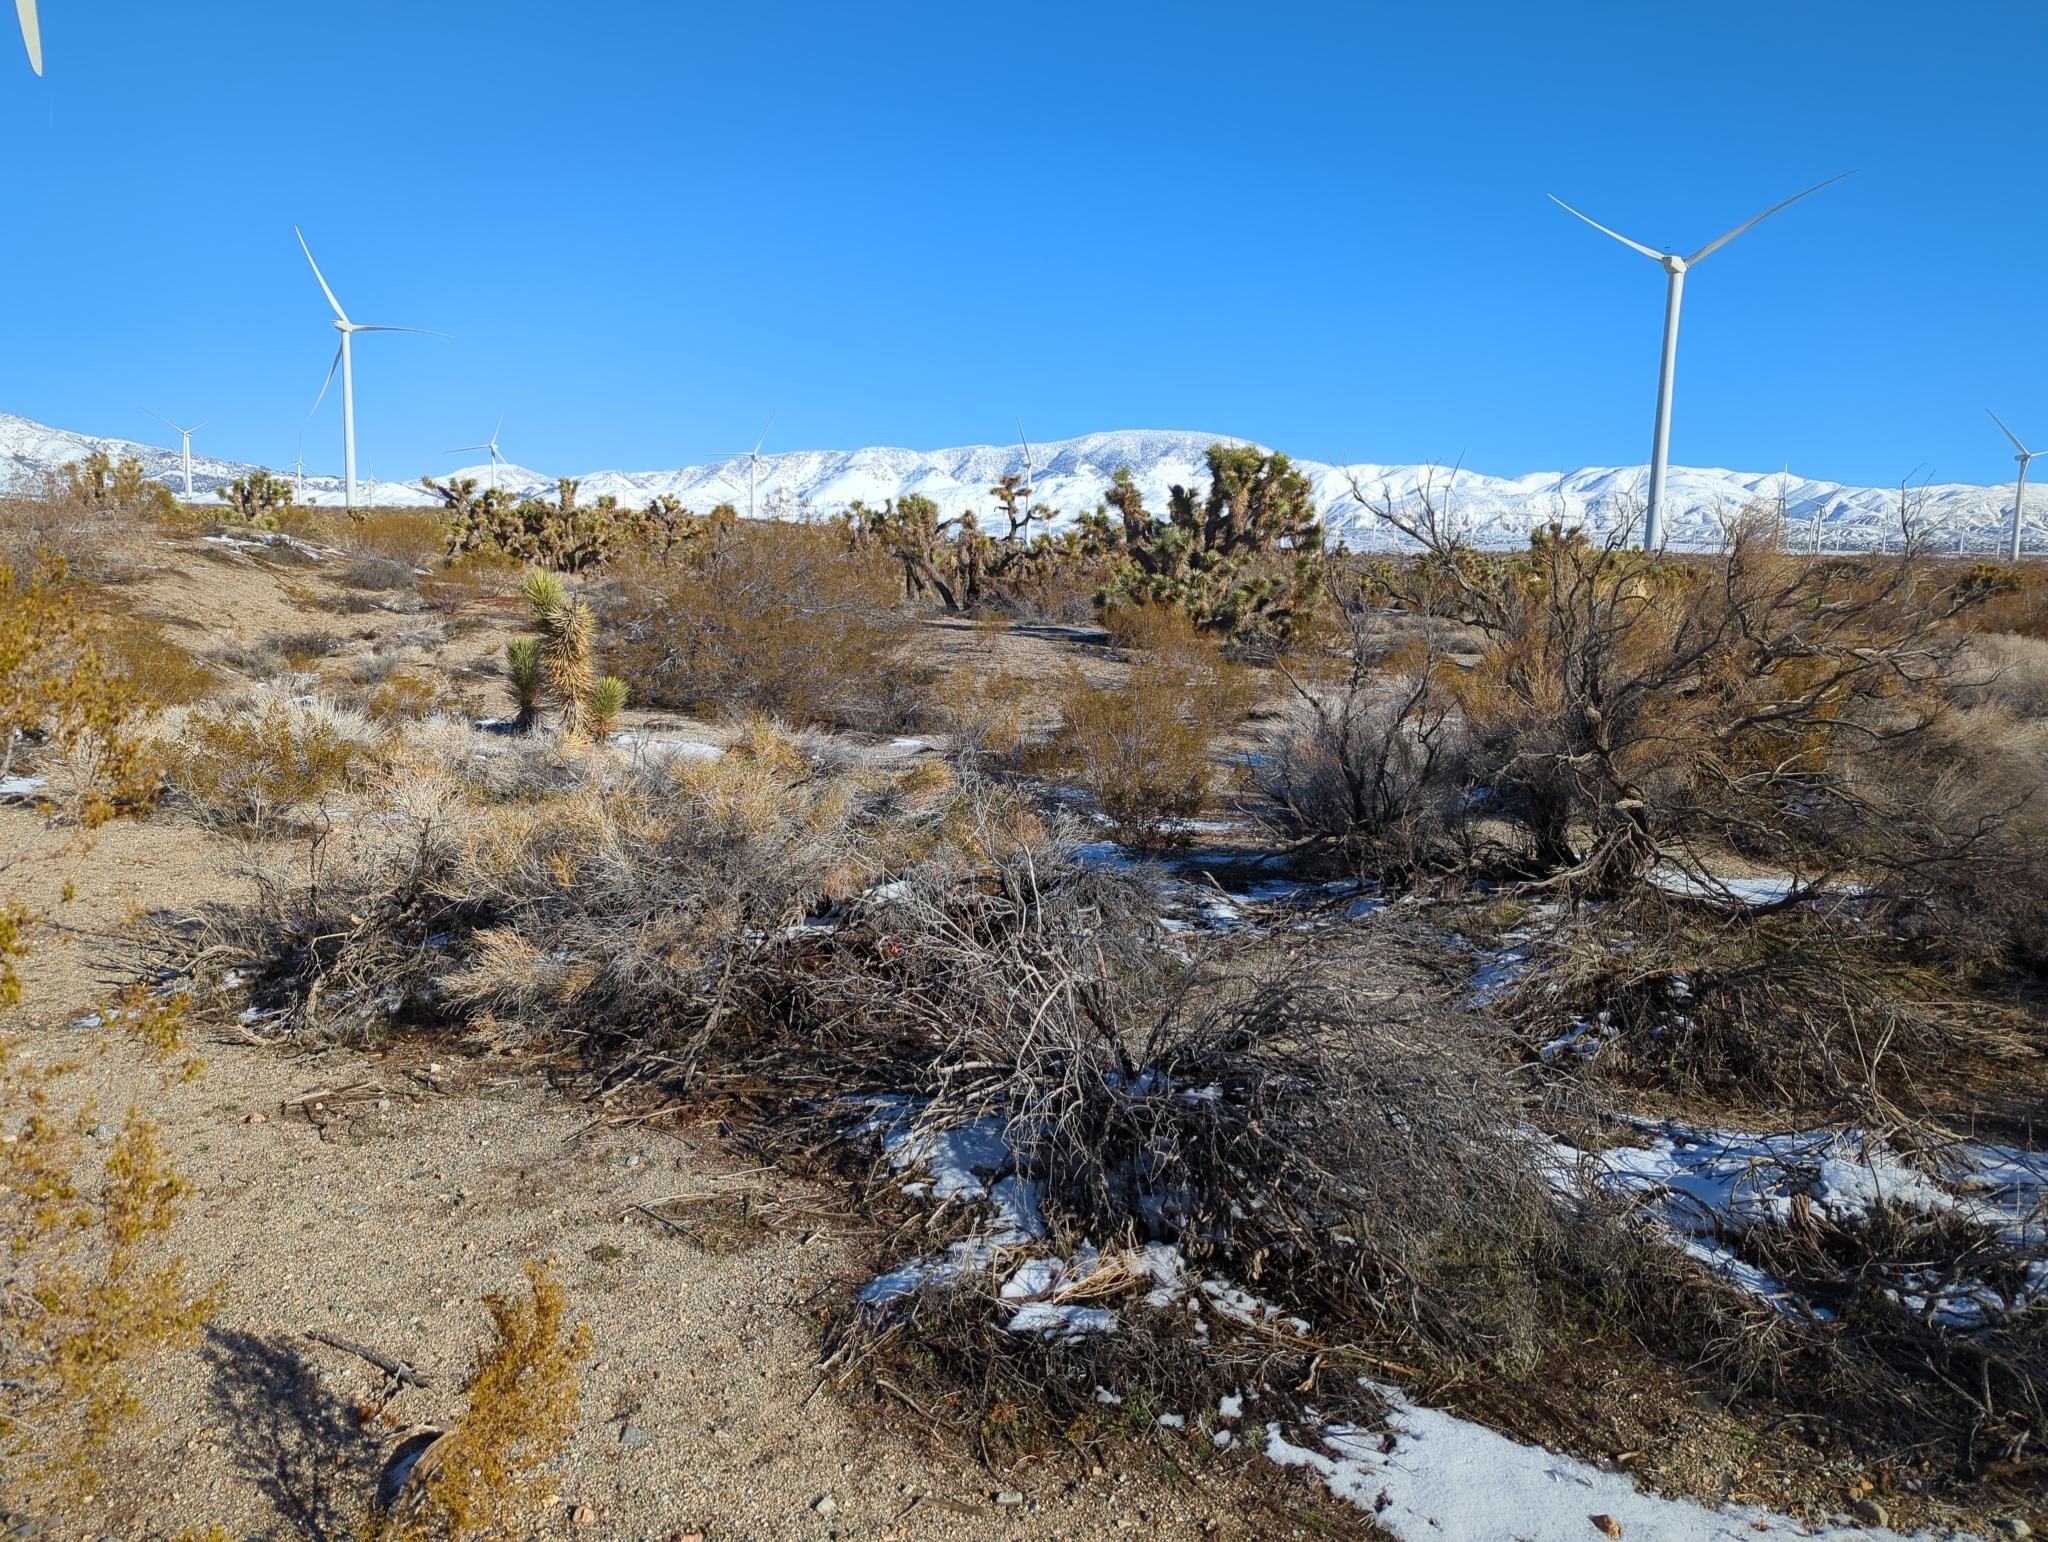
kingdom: Plantae
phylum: Tracheophyta
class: Liliopsida
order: Asparagales
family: Asparagaceae
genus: Yucca
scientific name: Yucca brevifolia
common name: Joshua tree
